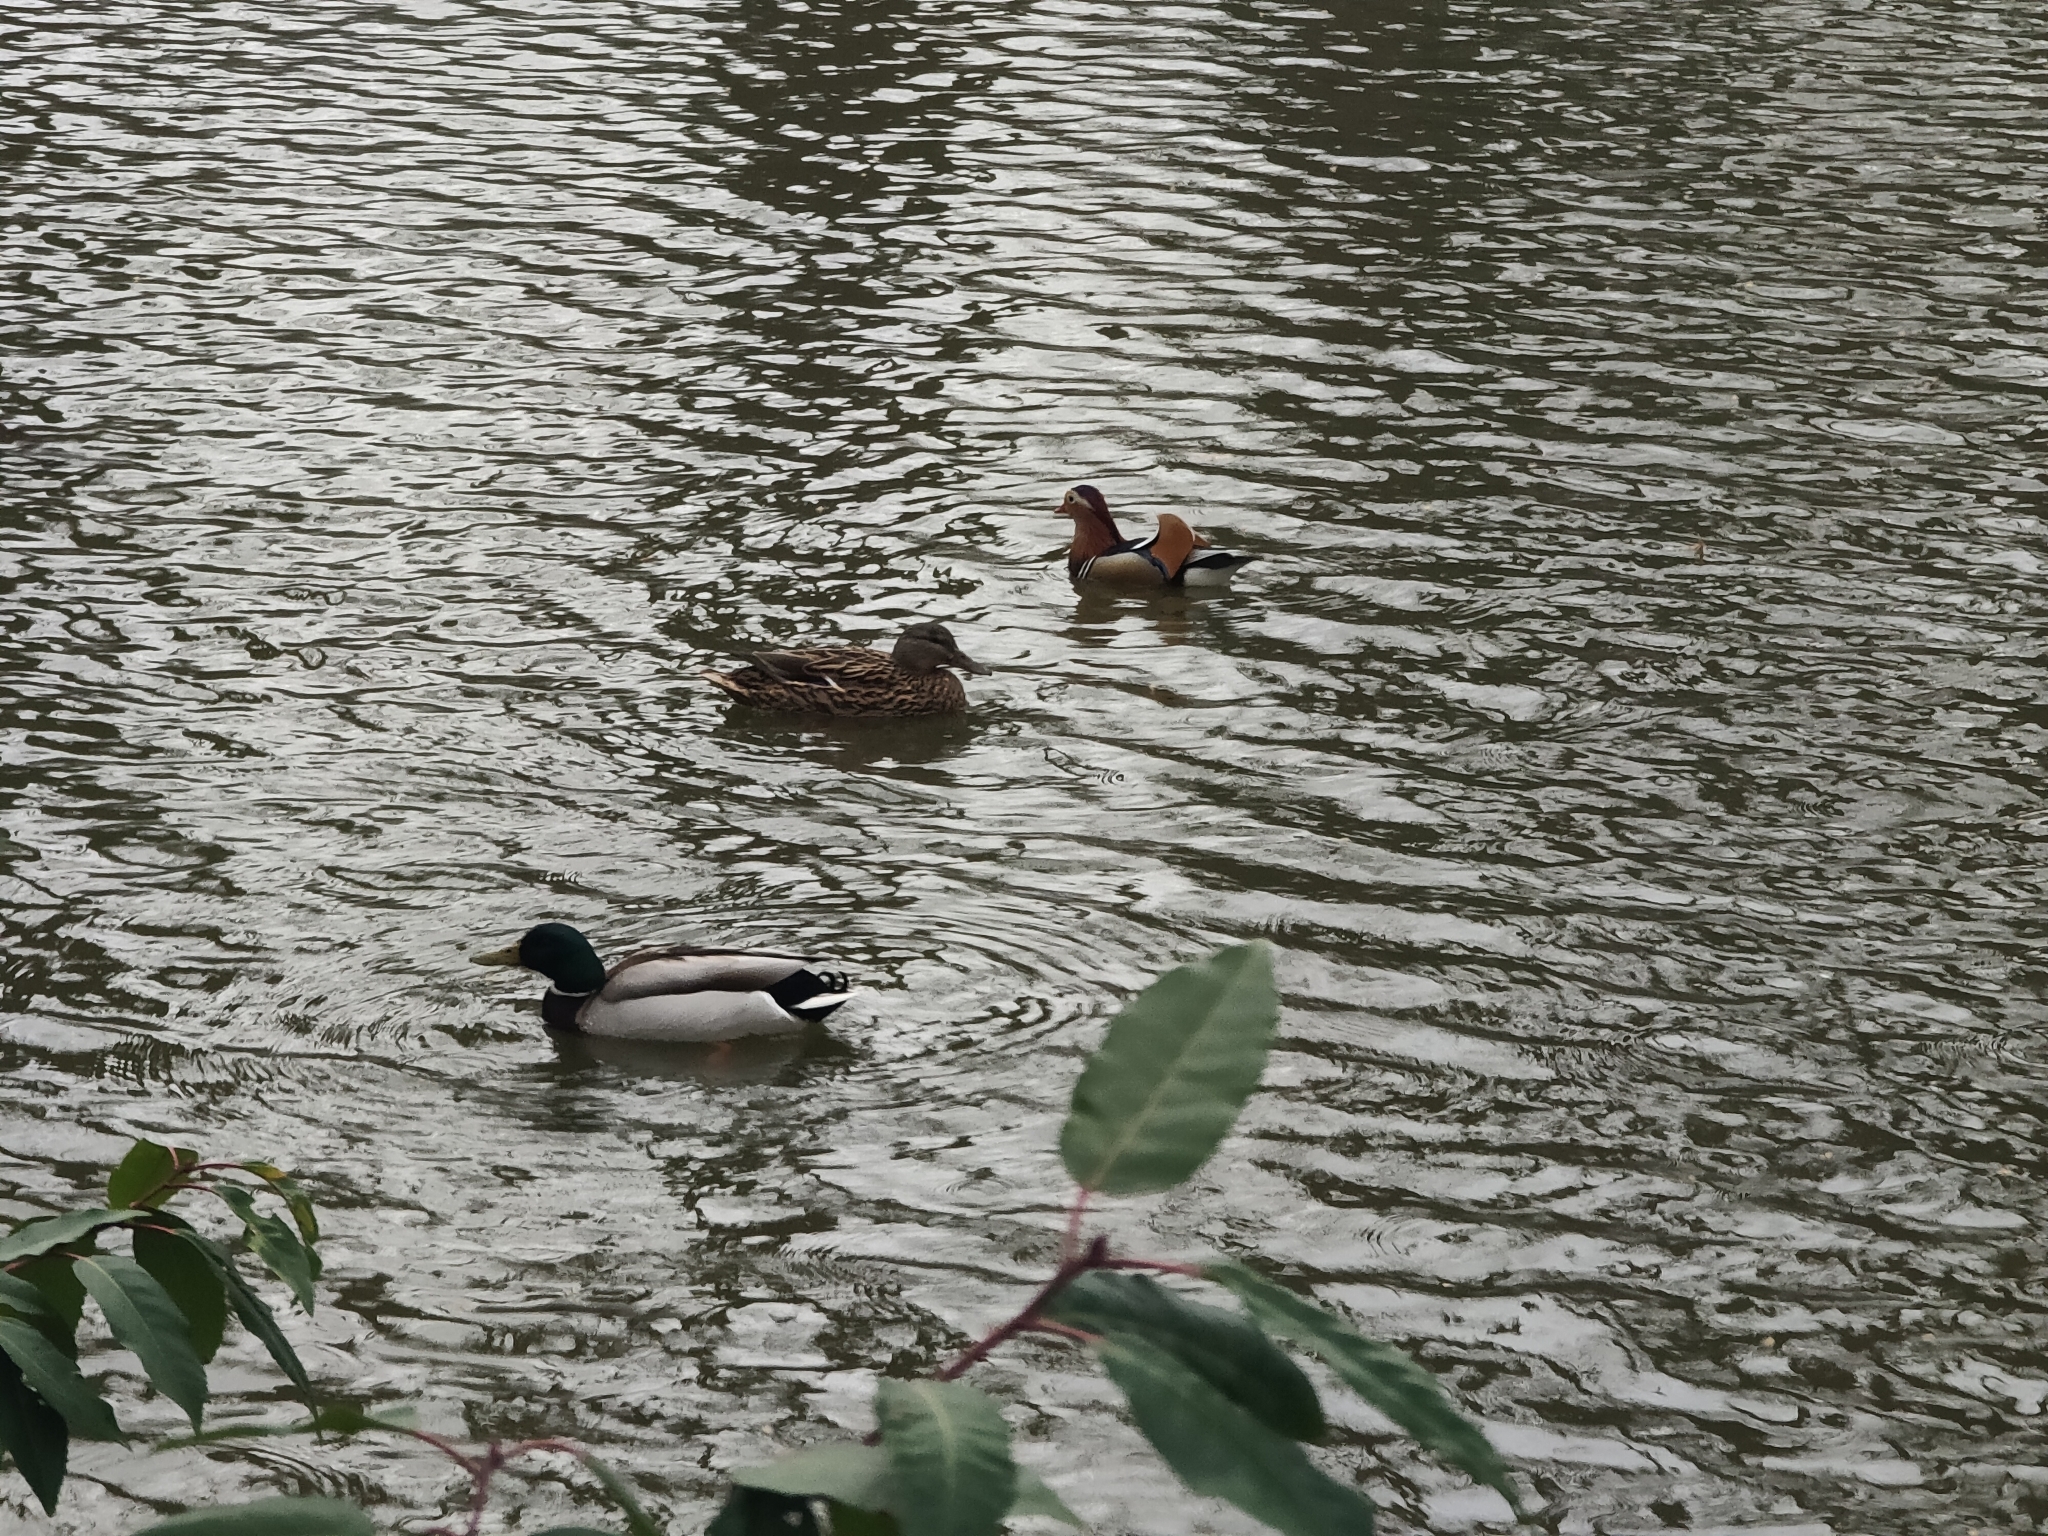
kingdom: Animalia
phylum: Chordata
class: Aves
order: Anseriformes
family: Anatidae
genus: Aix
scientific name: Aix galericulata
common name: Mandarin duck
